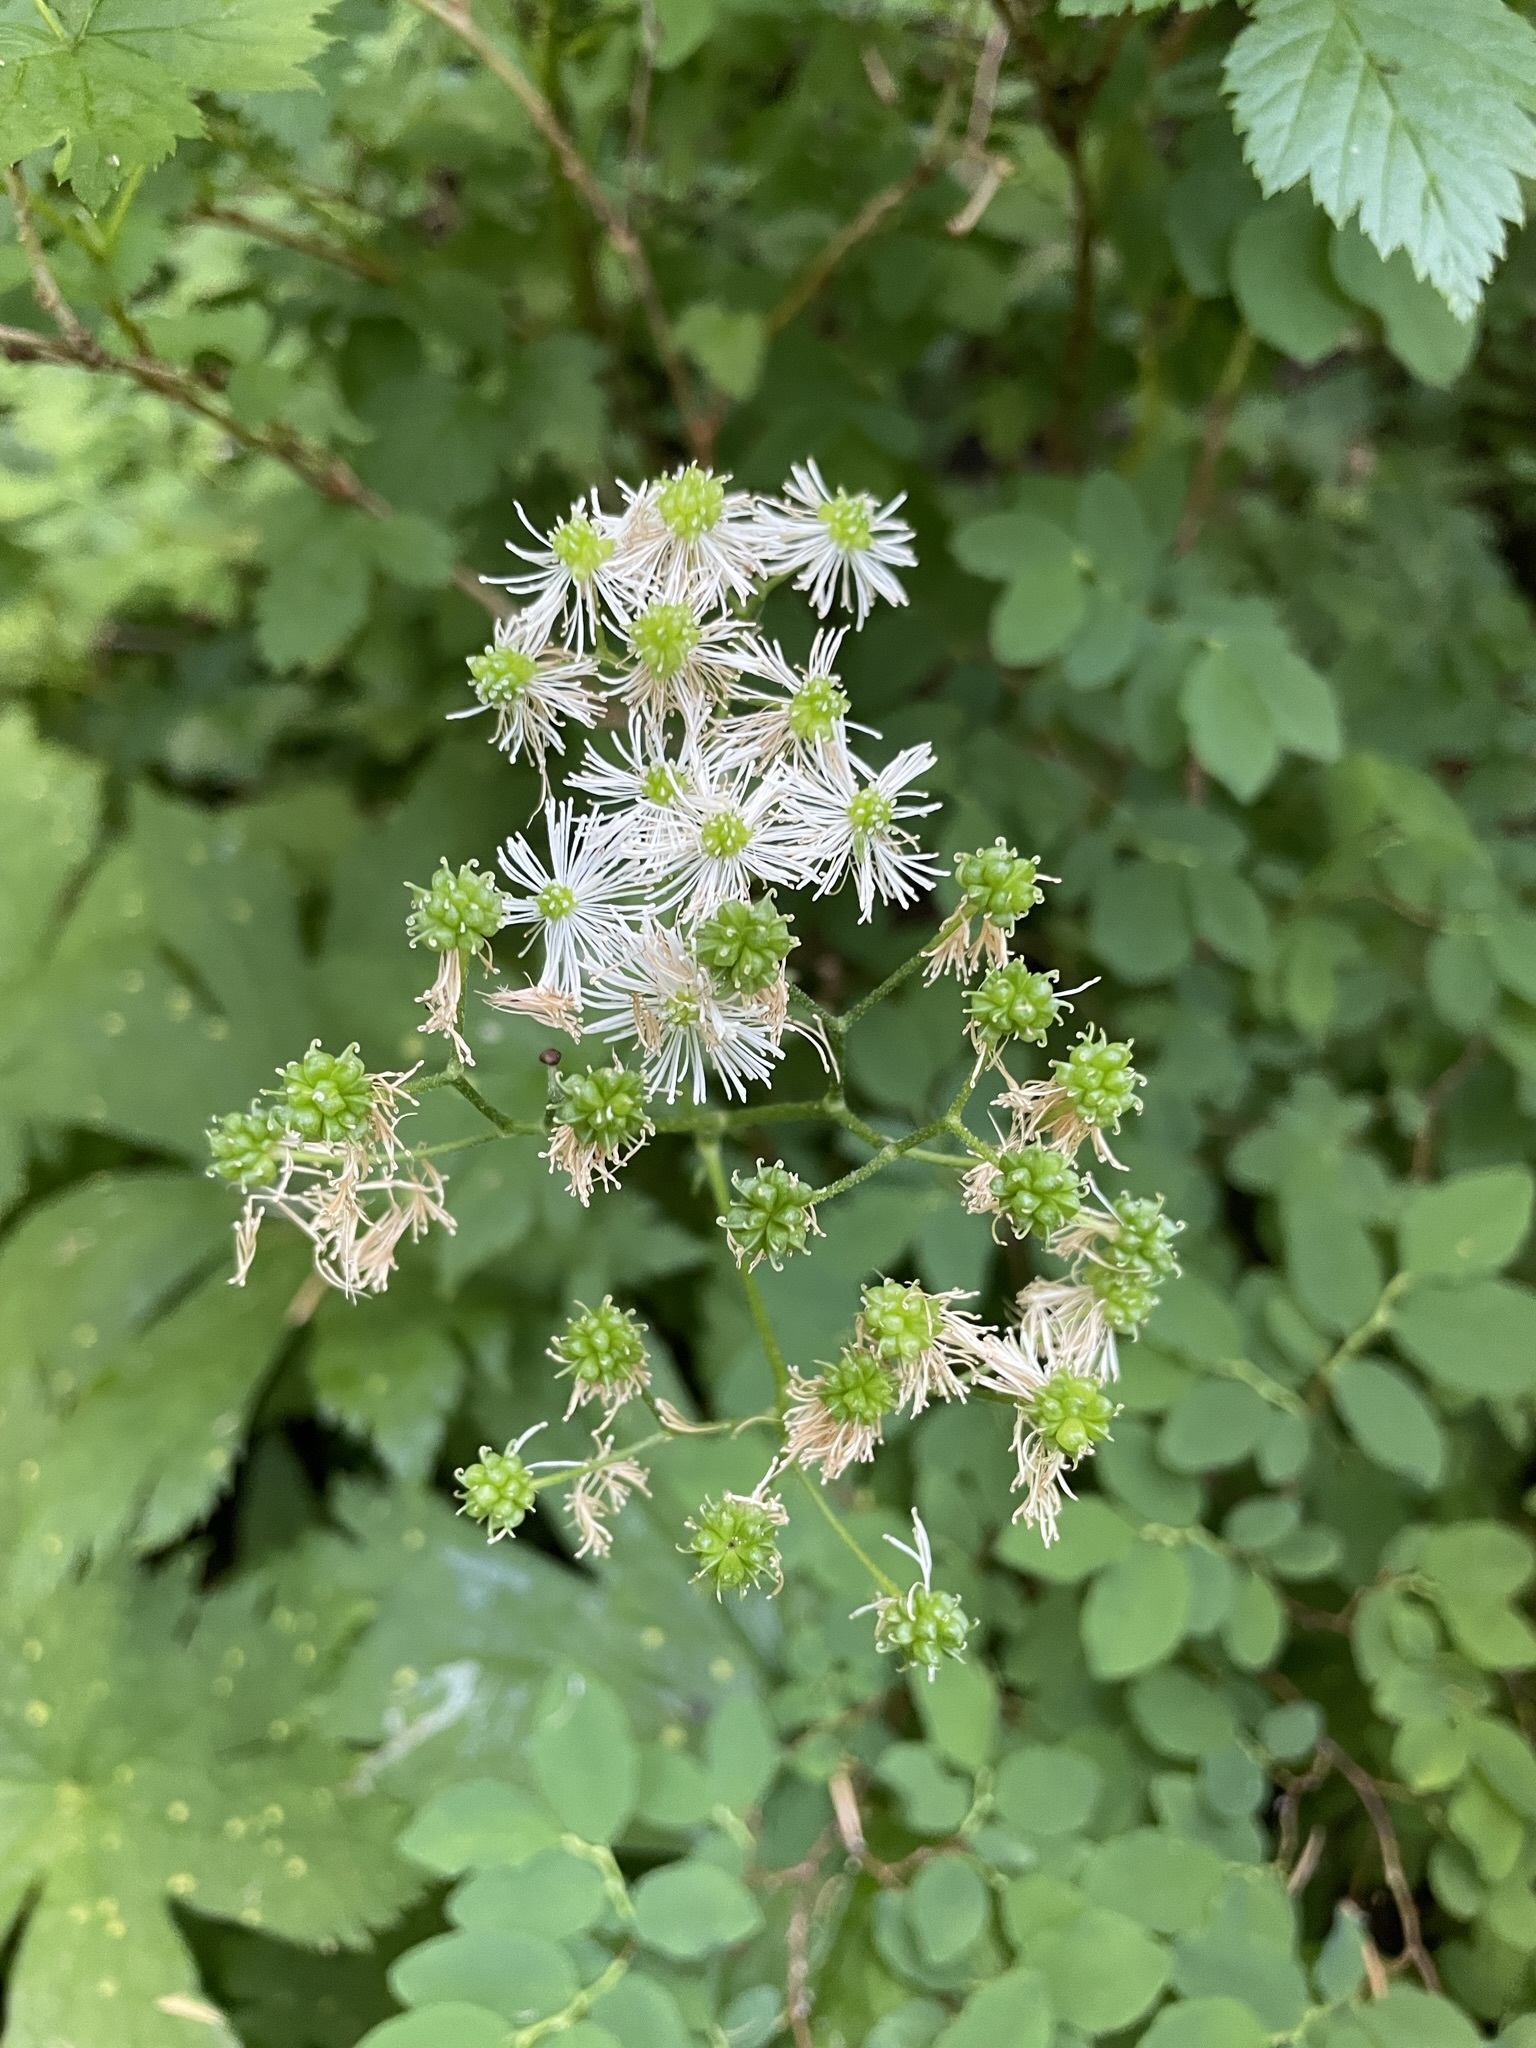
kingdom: Plantae
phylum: Tracheophyta
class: Magnoliopsida
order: Ranunculales
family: Ranunculaceae
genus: Trautvetteria
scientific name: Trautvetteria carolinensis
